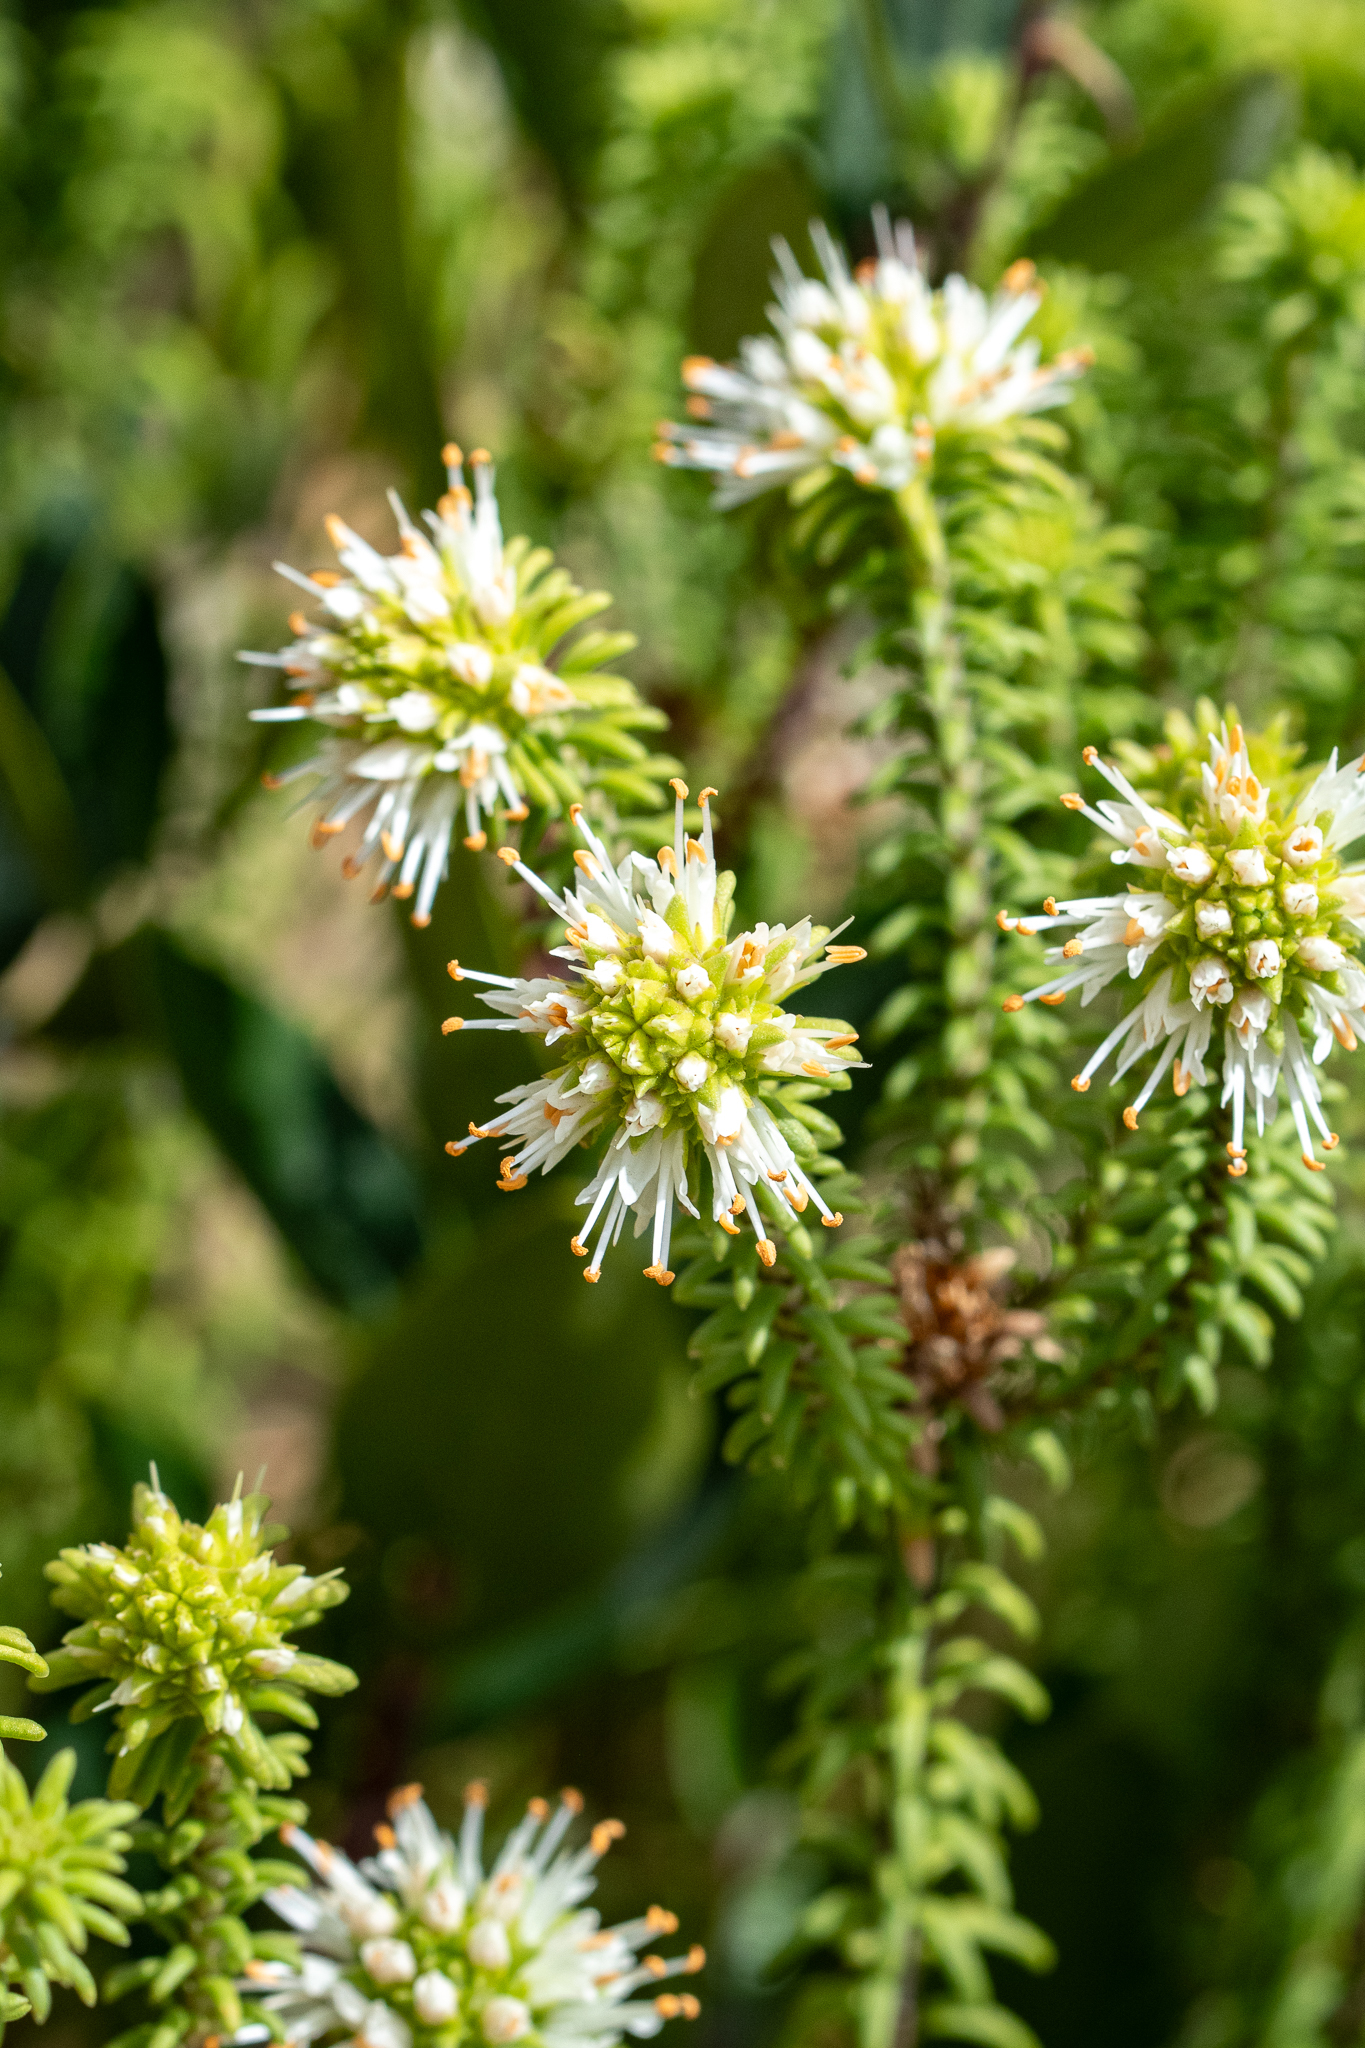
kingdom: Plantae
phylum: Tracheophyta
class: Magnoliopsida
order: Lamiales
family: Stilbaceae
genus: Campylostachys
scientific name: Campylostachys cernua
